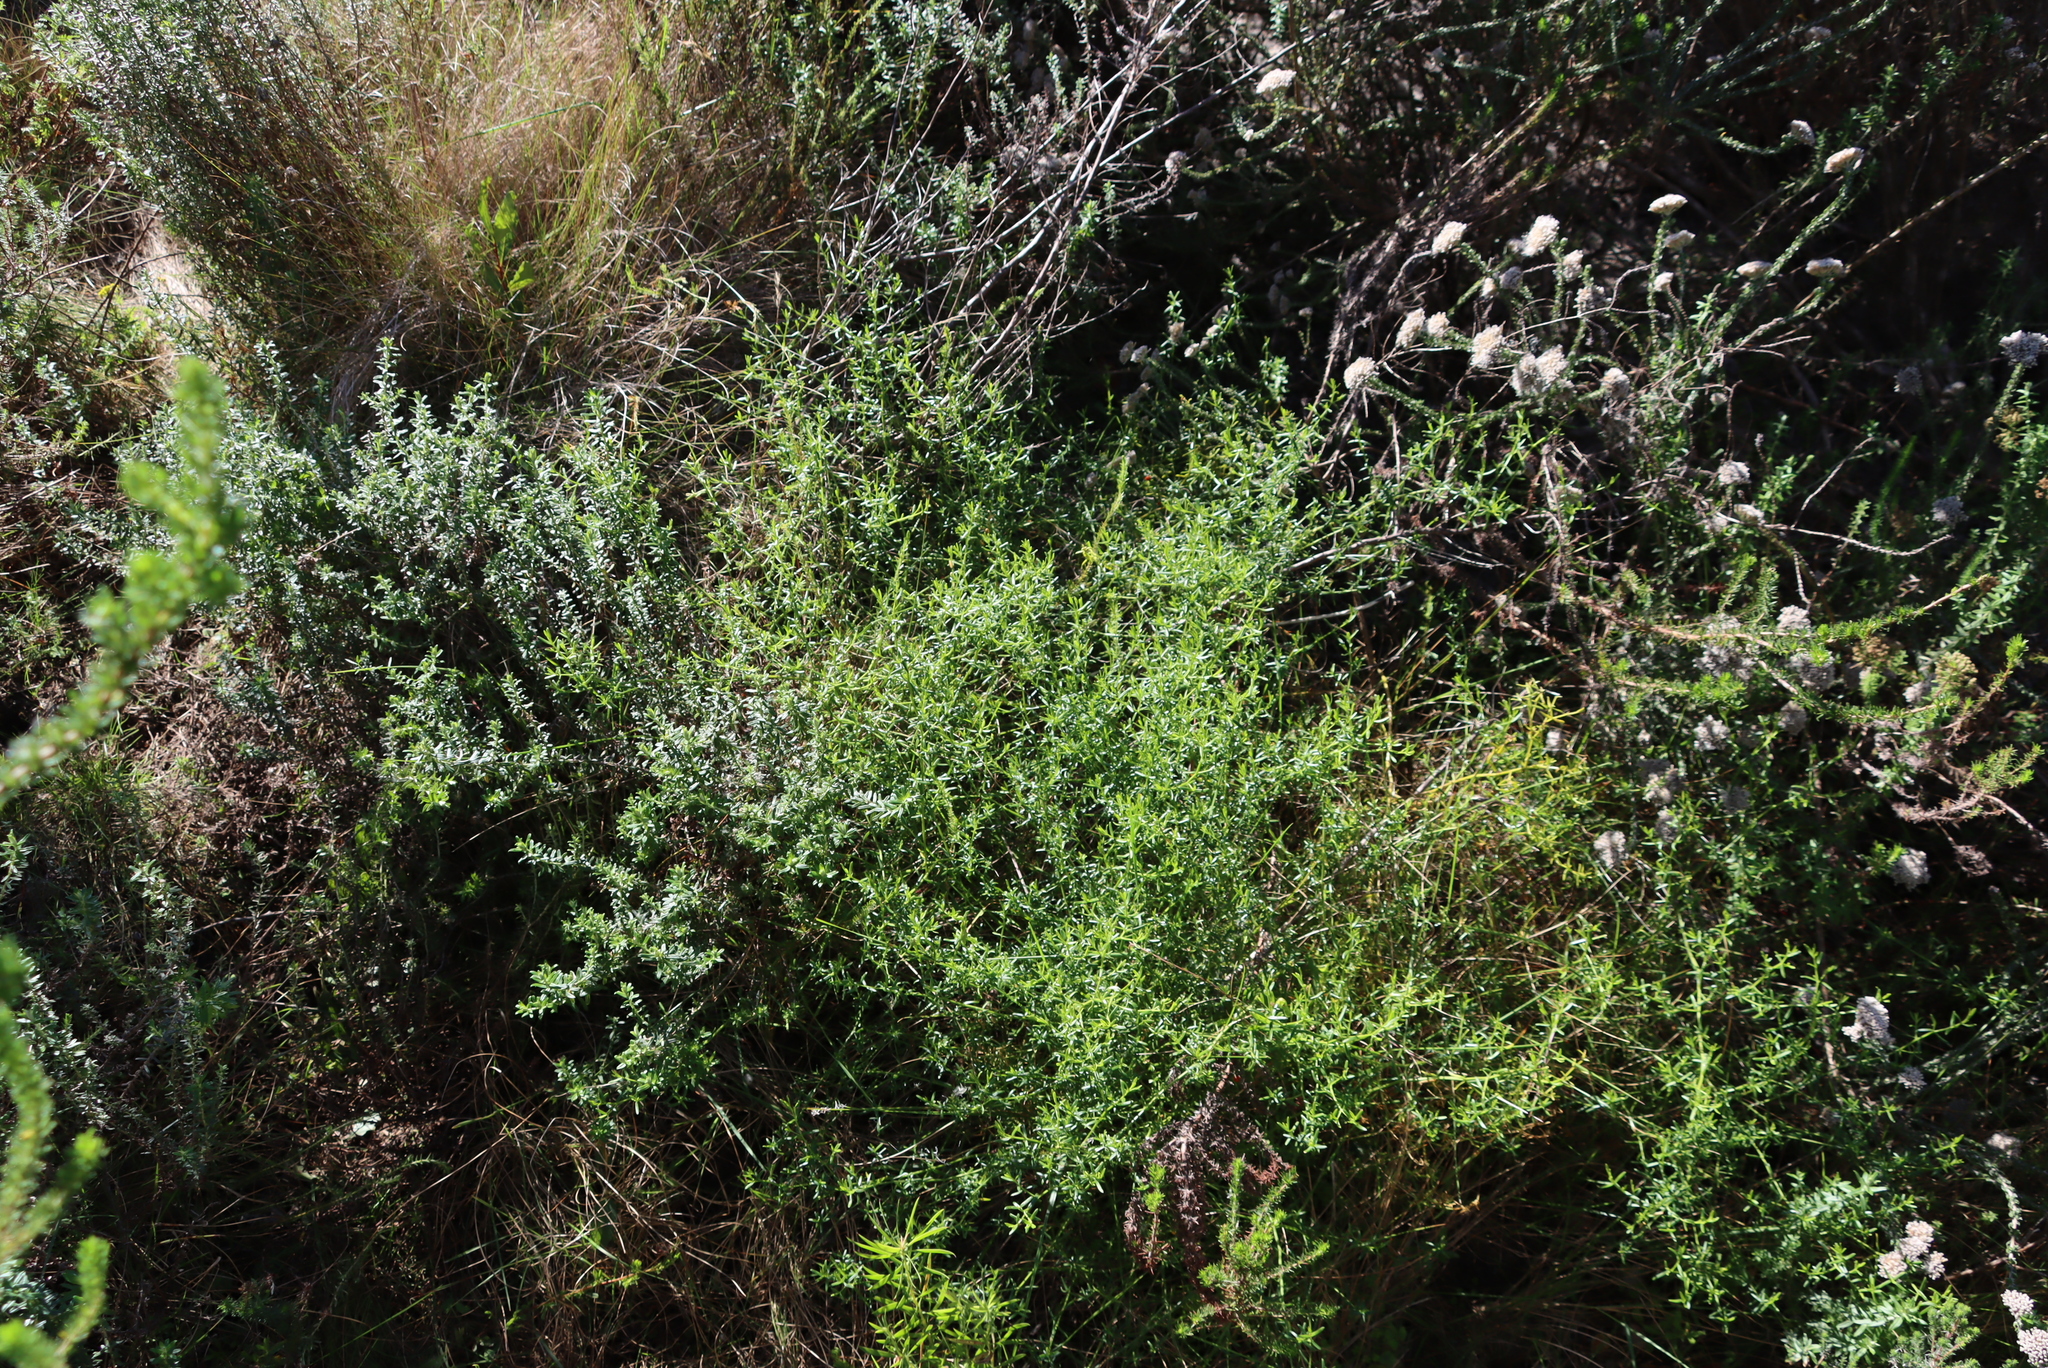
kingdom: Plantae
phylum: Tracheophyta
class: Magnoliopsida
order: Gentianales
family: Gentianaceae
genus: Chironia
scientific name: Chironia baccifera
